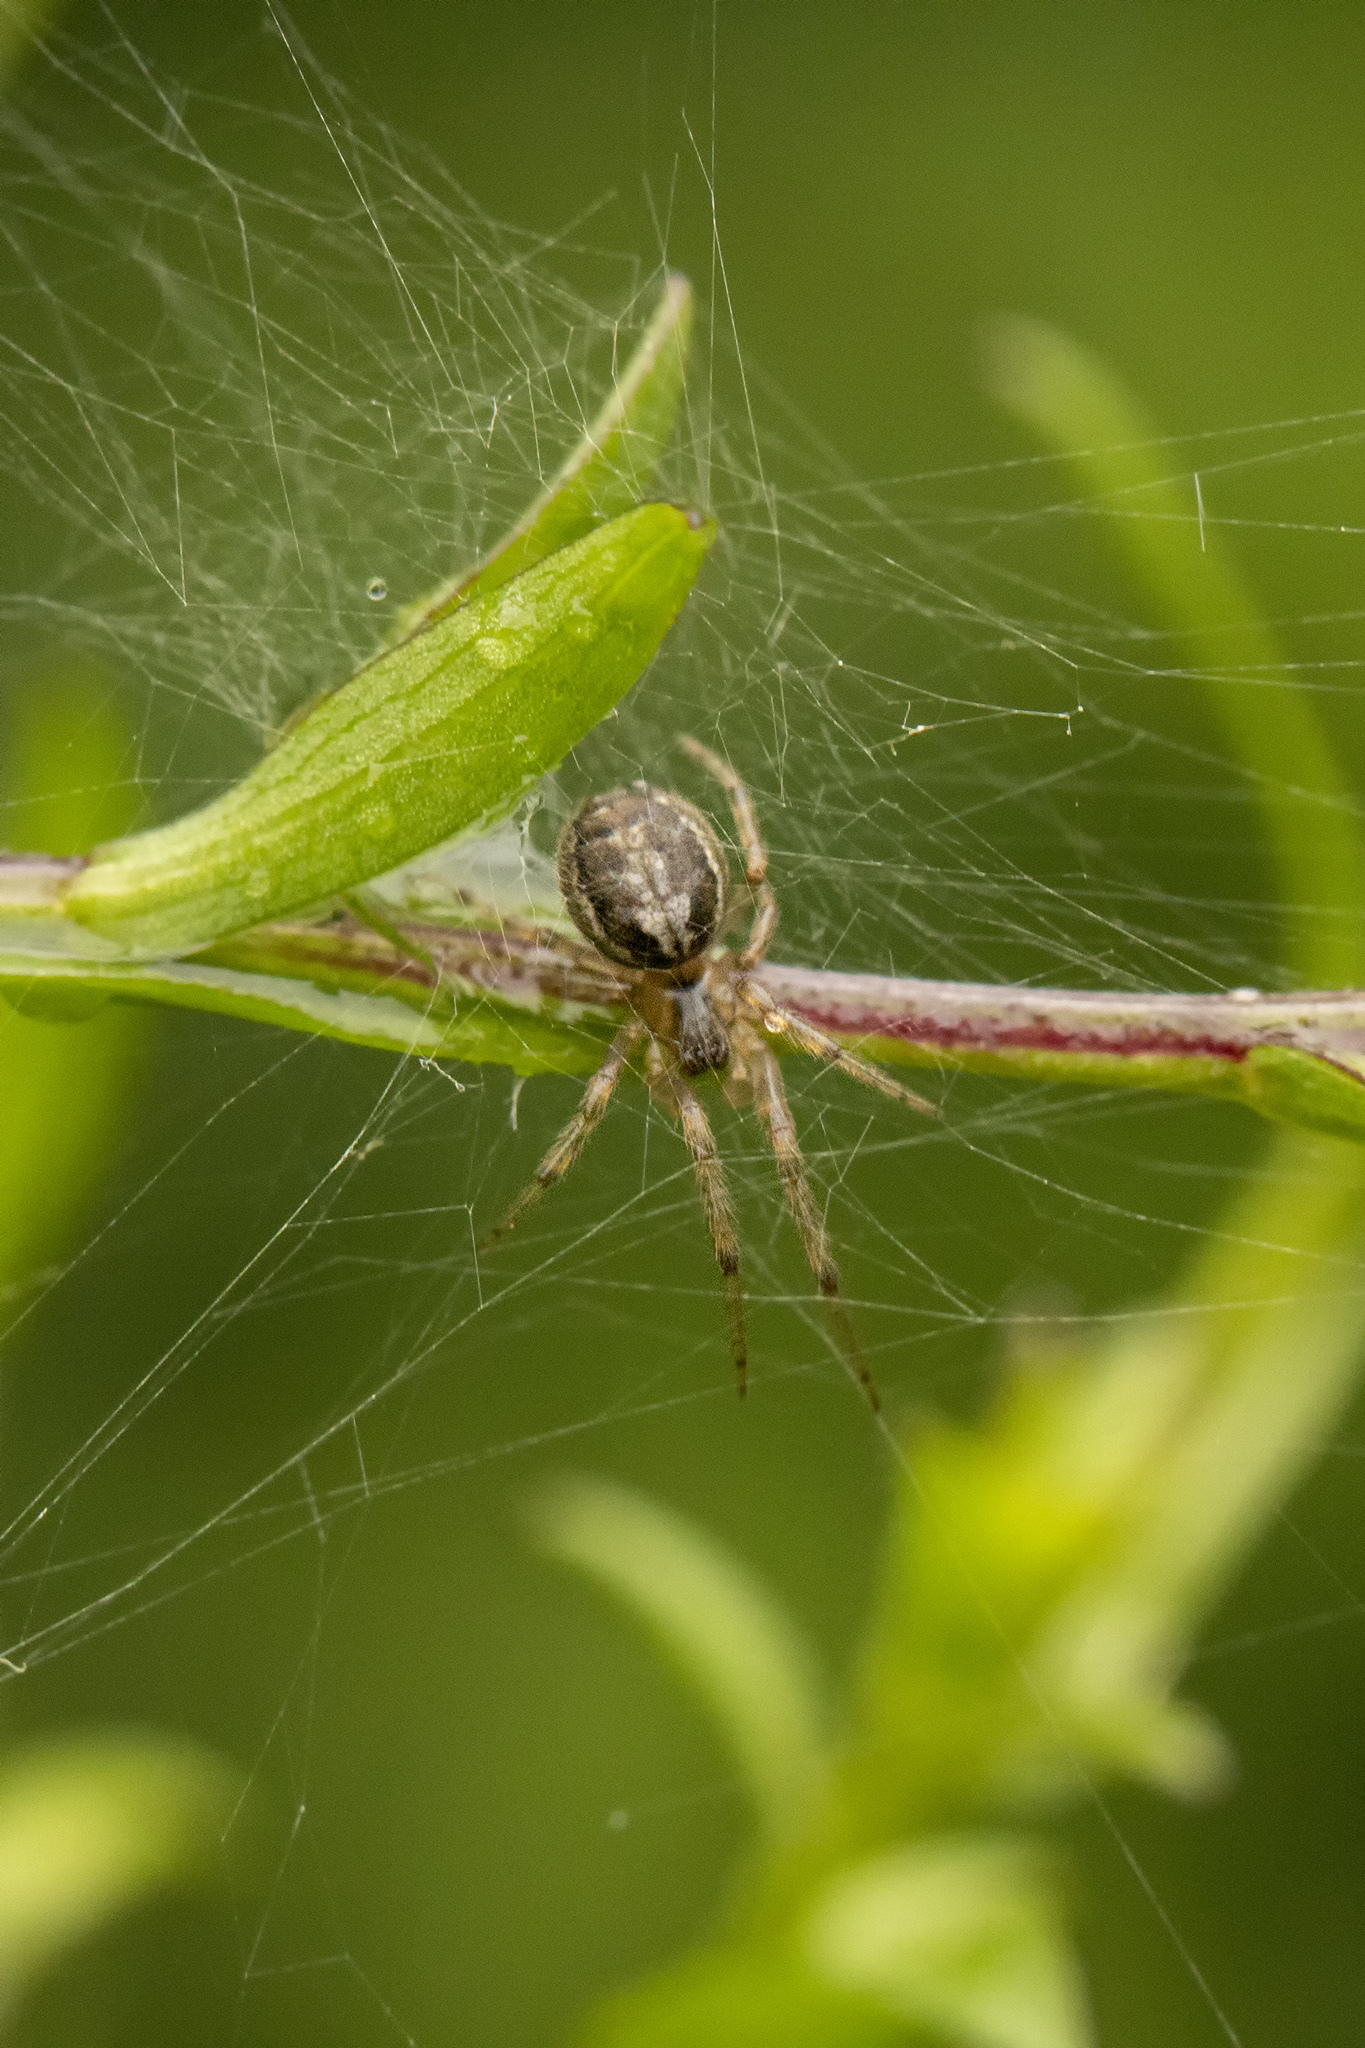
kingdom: Animalia
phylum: Arthropoda
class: Arachnida
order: Araneae
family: Araneidae
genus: Zygiella
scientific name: Zygiella x-notata
